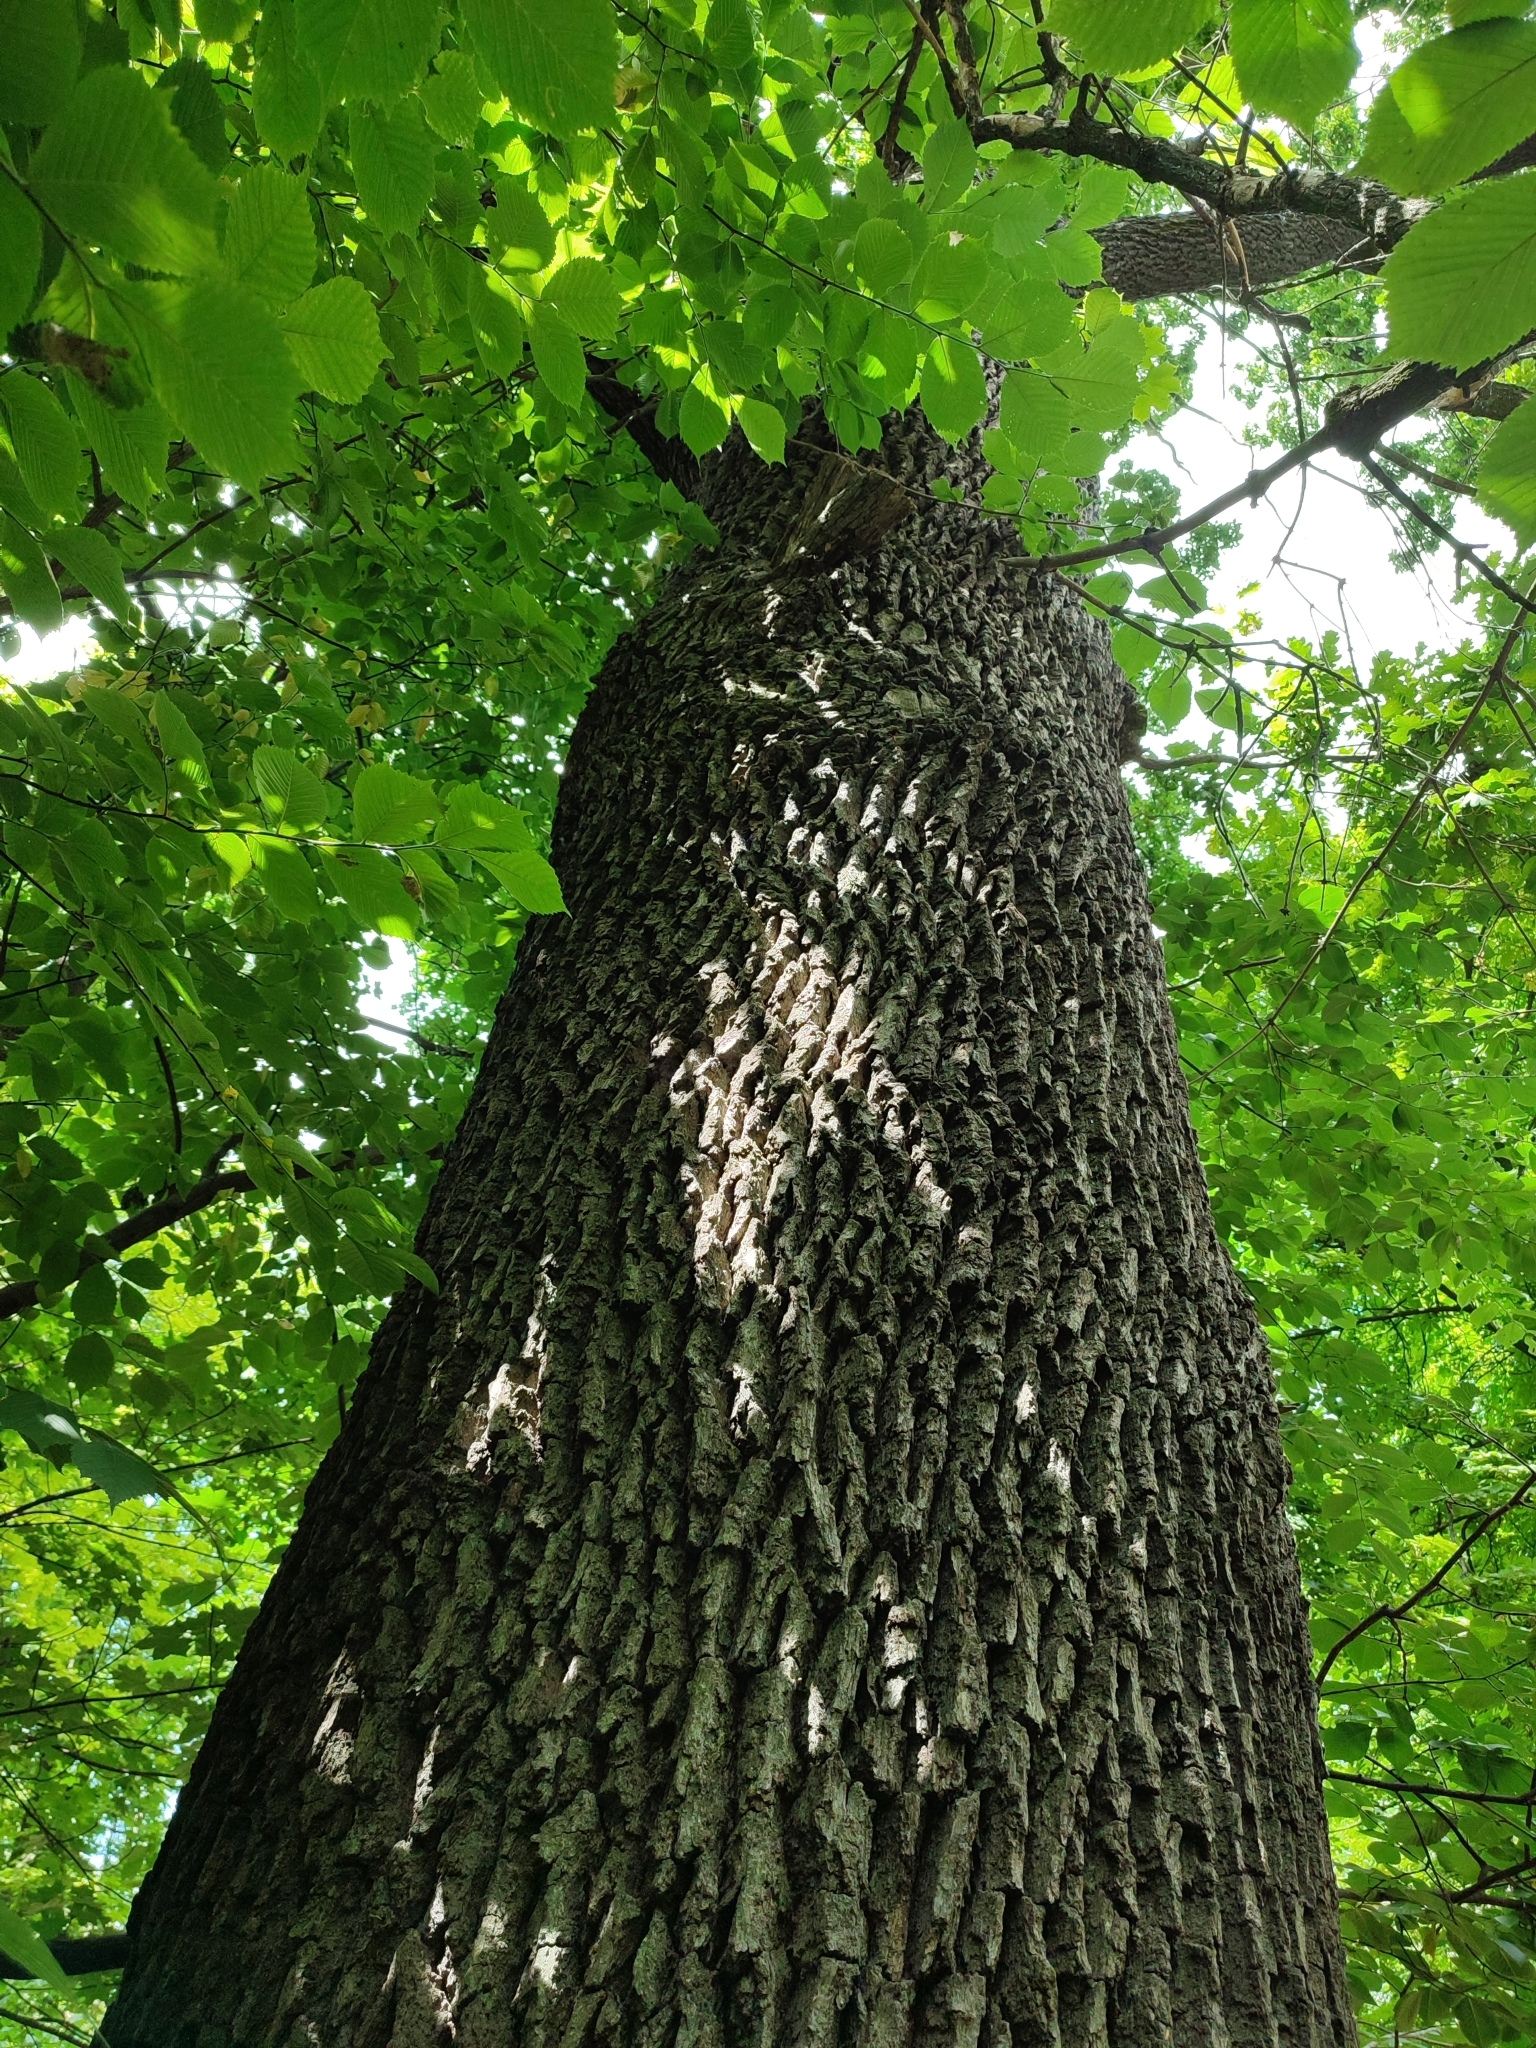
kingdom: Plantae
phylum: Tracheophyta
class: Magnoliopsida
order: Fagales
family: Fagaceae
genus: Quercus
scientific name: Quercus robur
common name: Pedunculate oak
